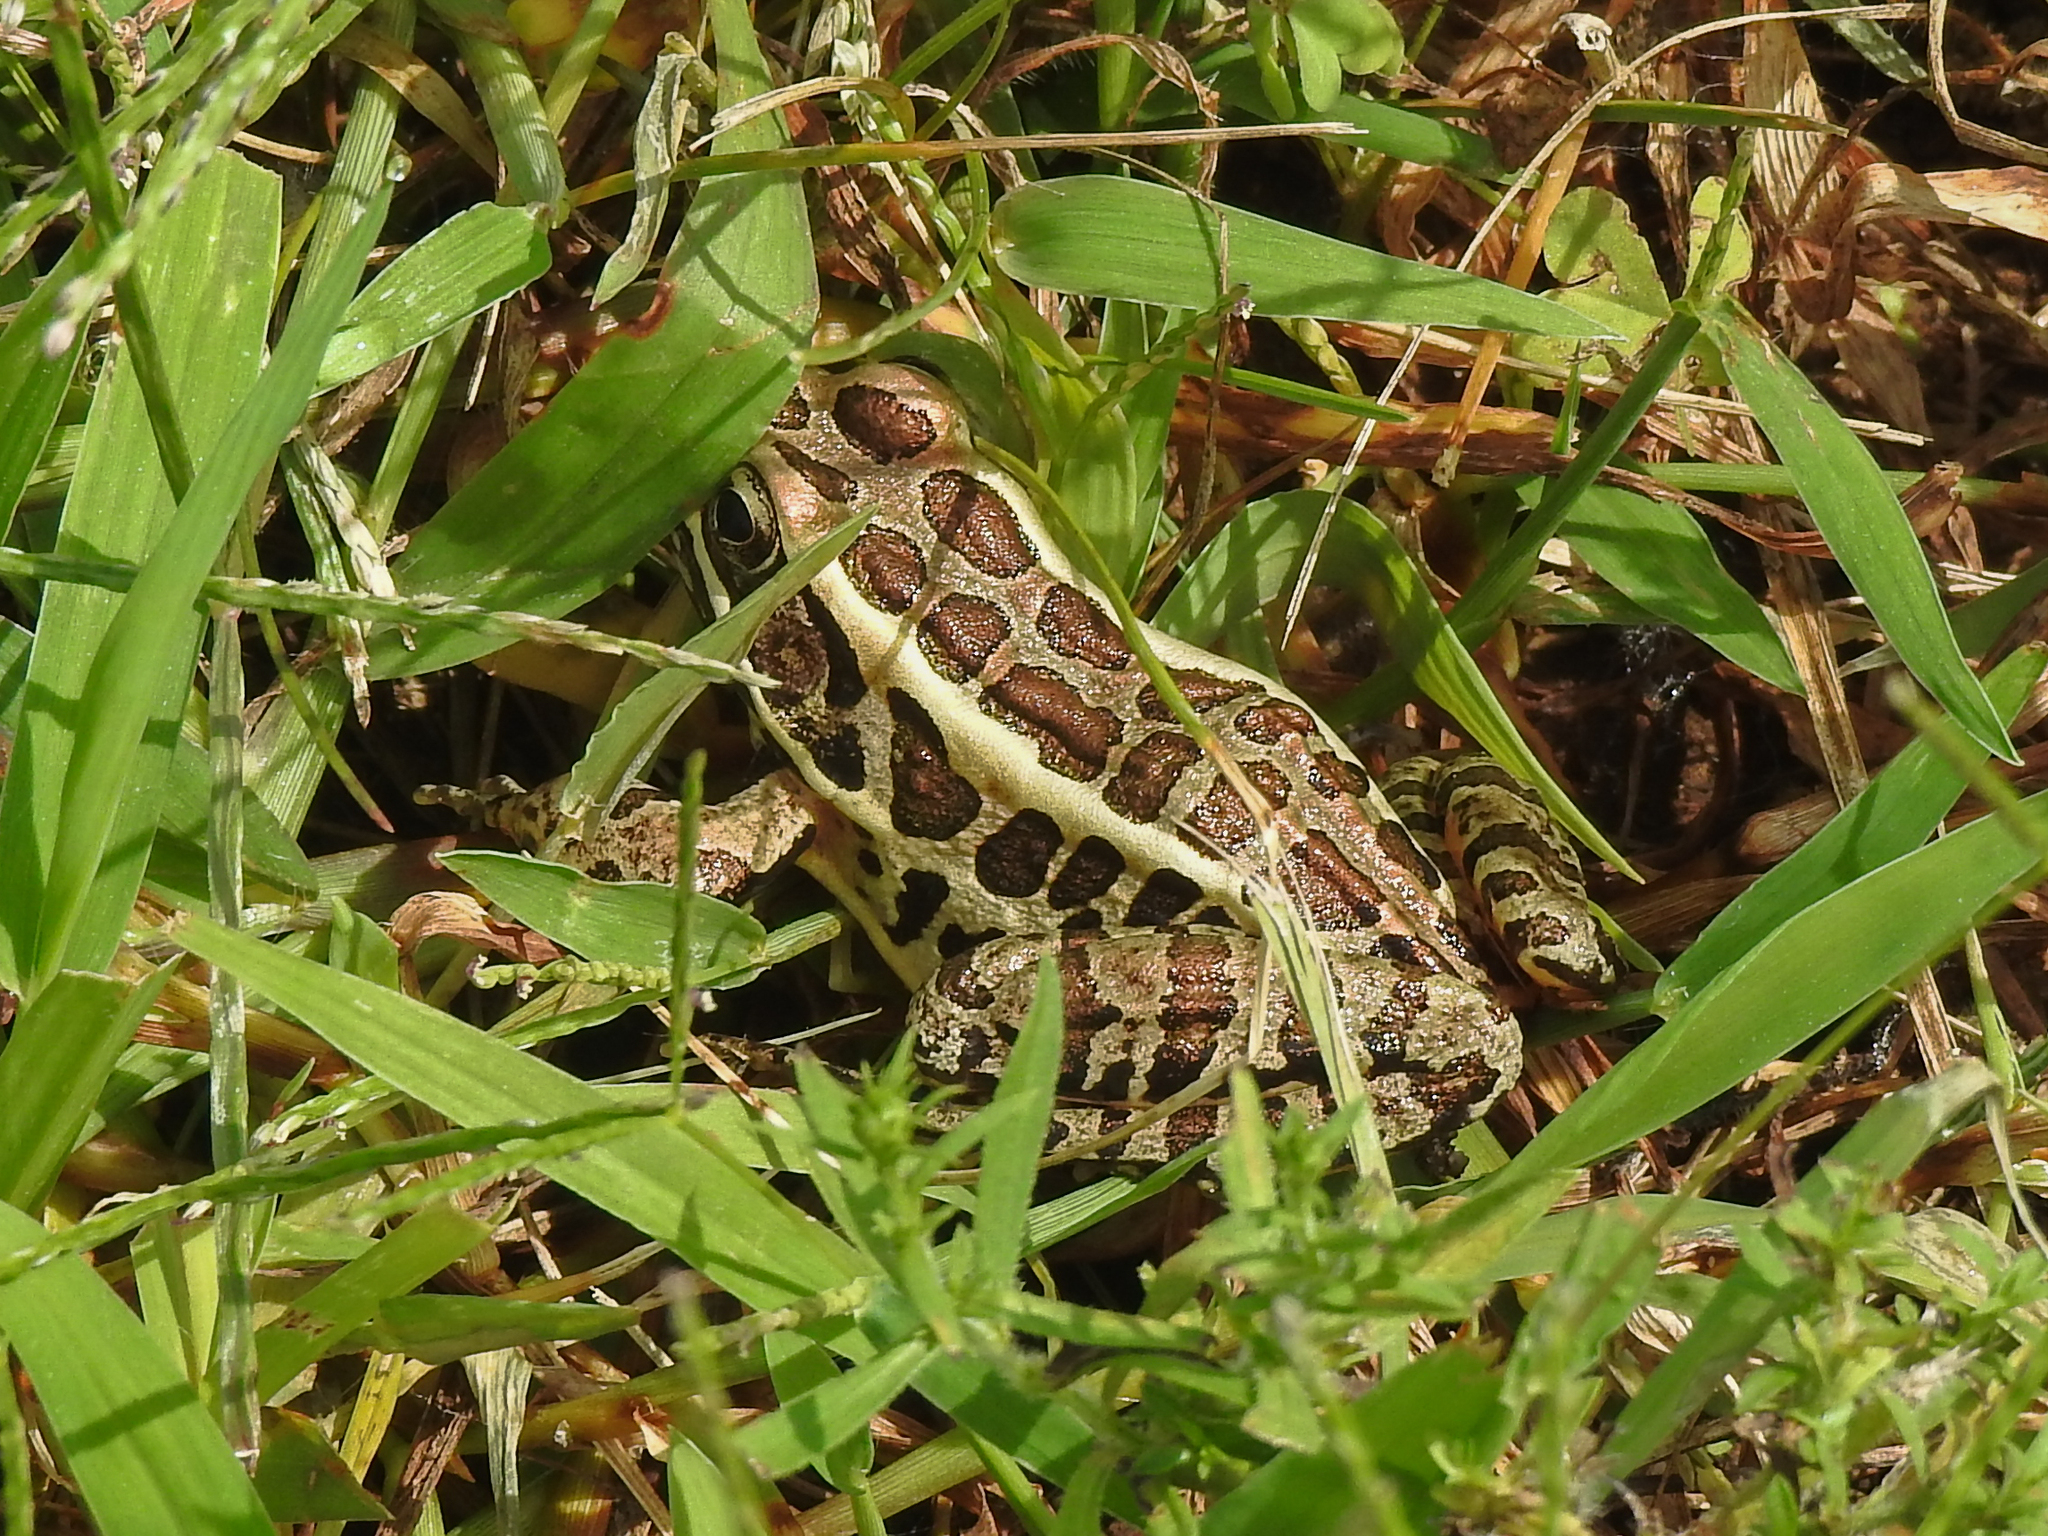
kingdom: Animalia
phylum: Chordata
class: Amphibia
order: Anura
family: Ranidae
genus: Lithobates
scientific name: Lithobates palustris
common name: Pickerel frog
